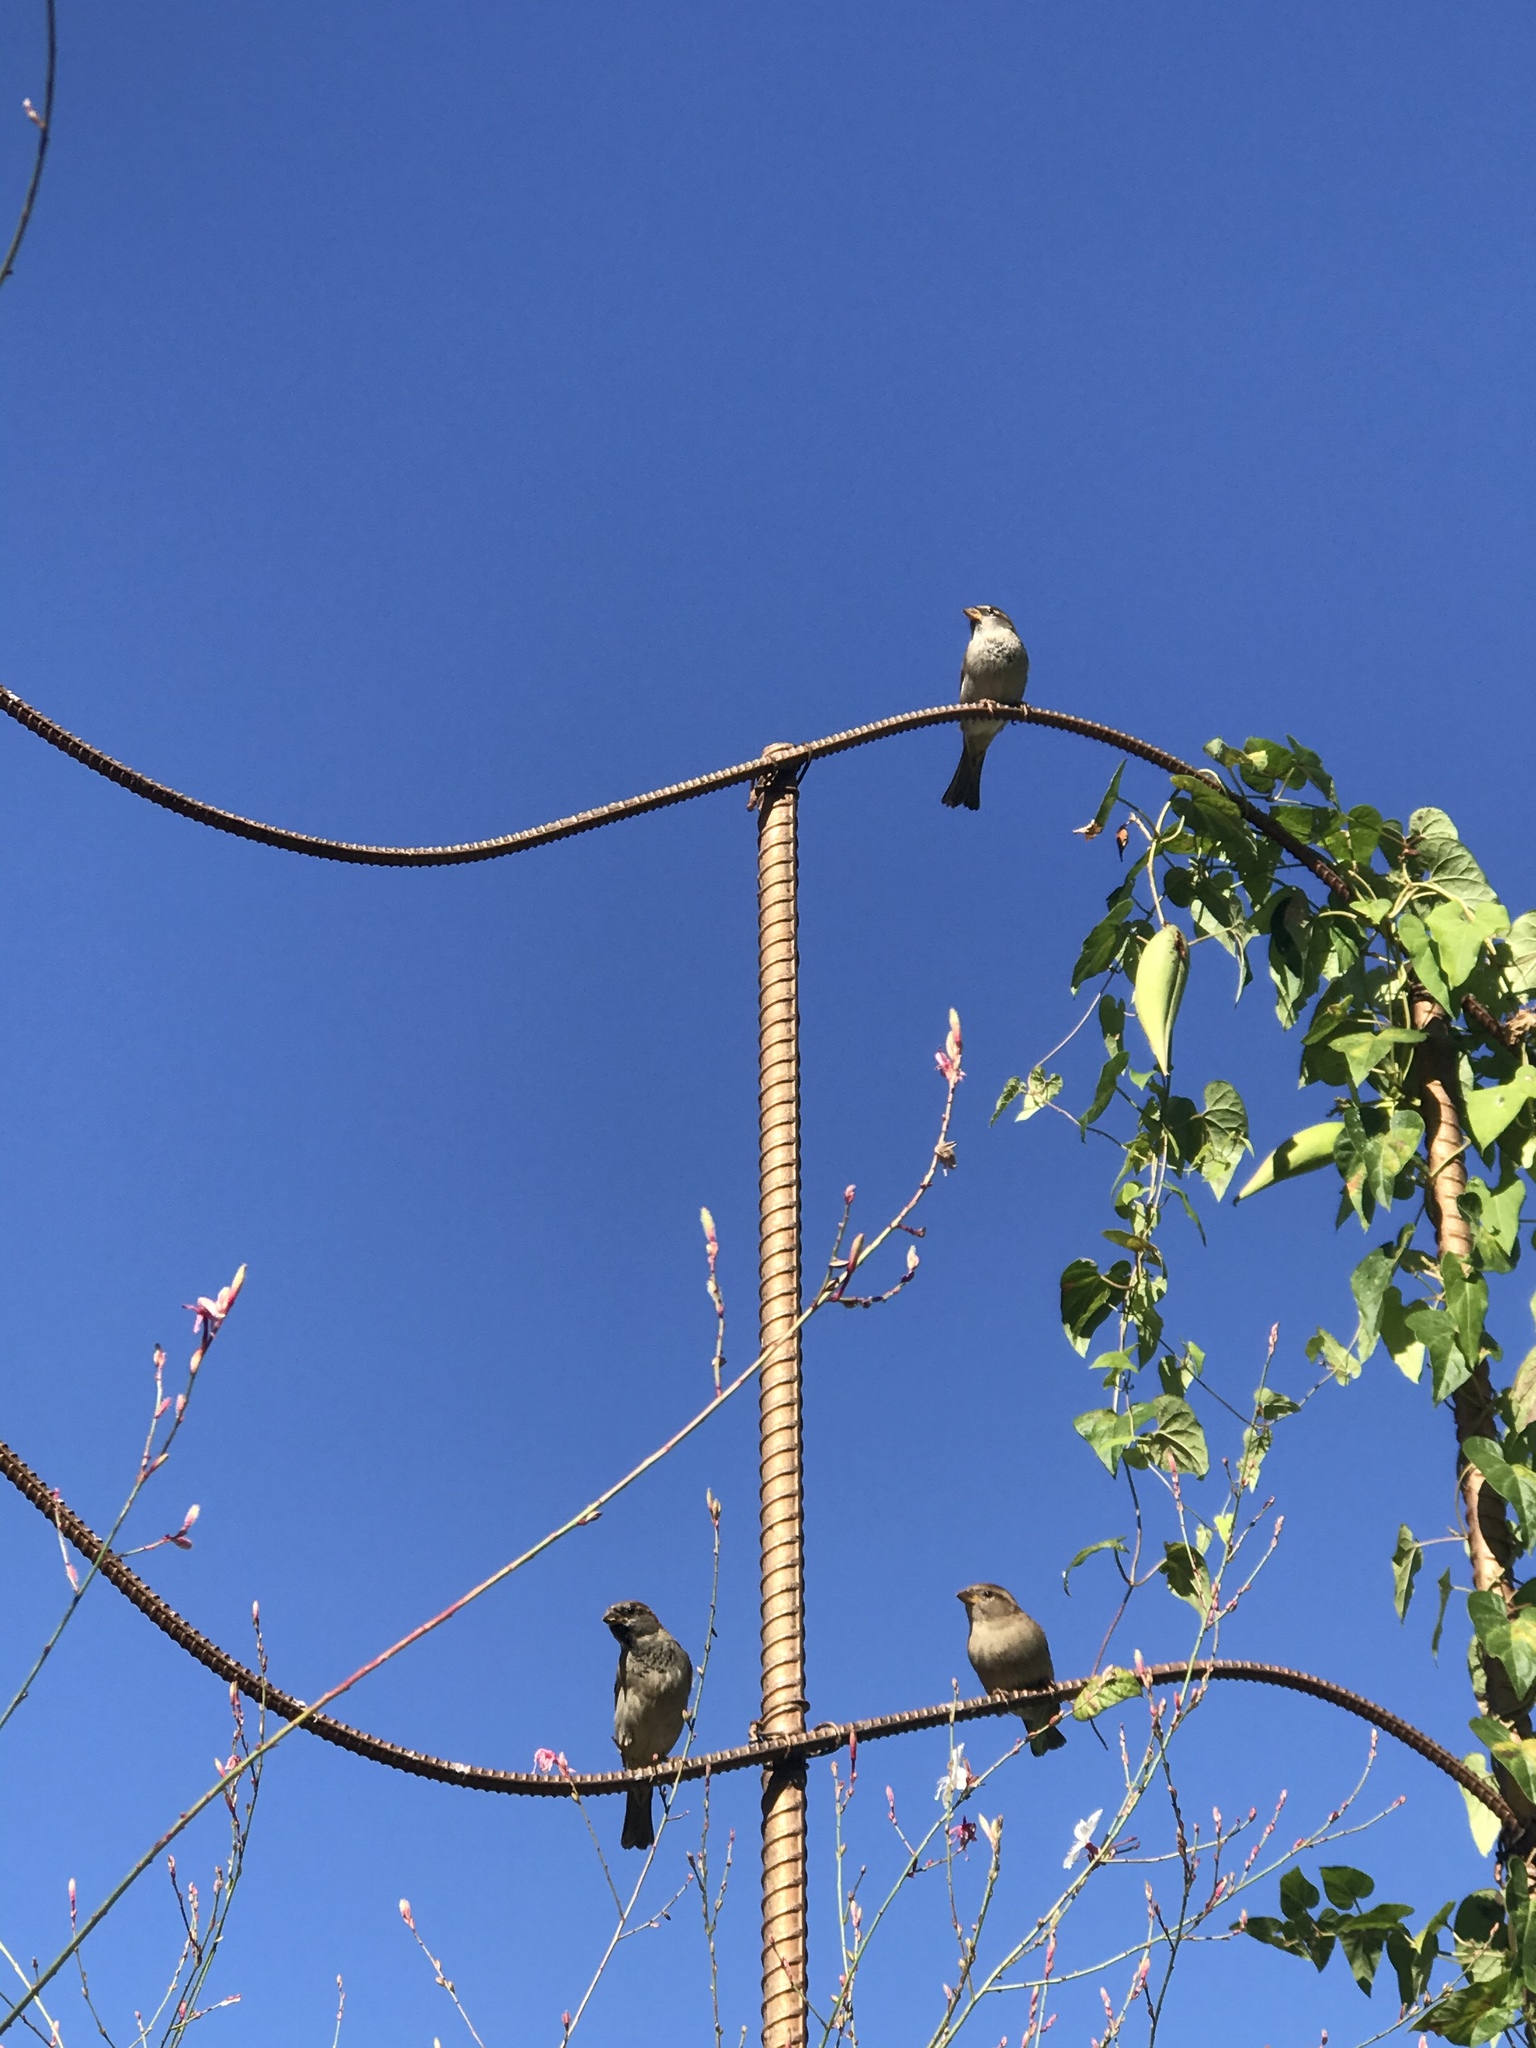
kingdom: Animalia
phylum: Chordata
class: Aves
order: Passeriformes
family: Passeridae
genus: Passer
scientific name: Passer domesticus
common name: House sparrow
